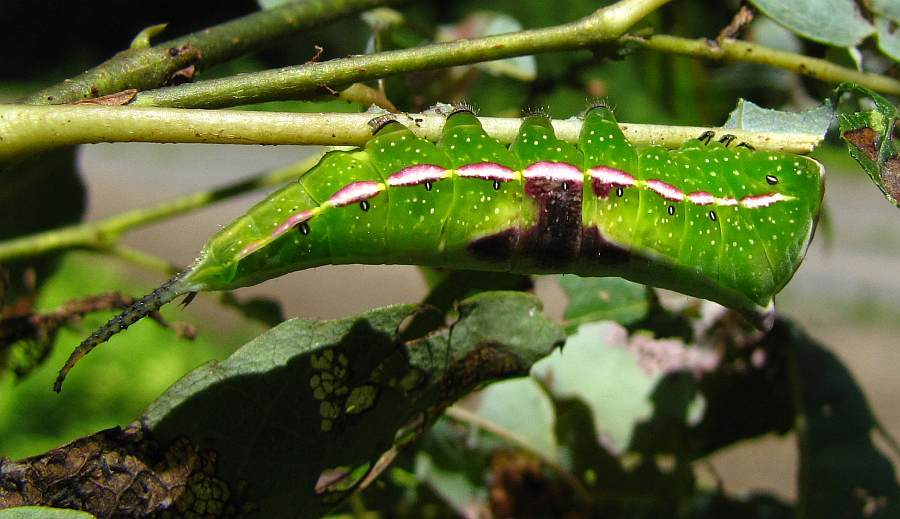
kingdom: Animalia
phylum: Arthropoda
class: Insecta
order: Lepidoptera
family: Notodontidae
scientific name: Notodontidae
